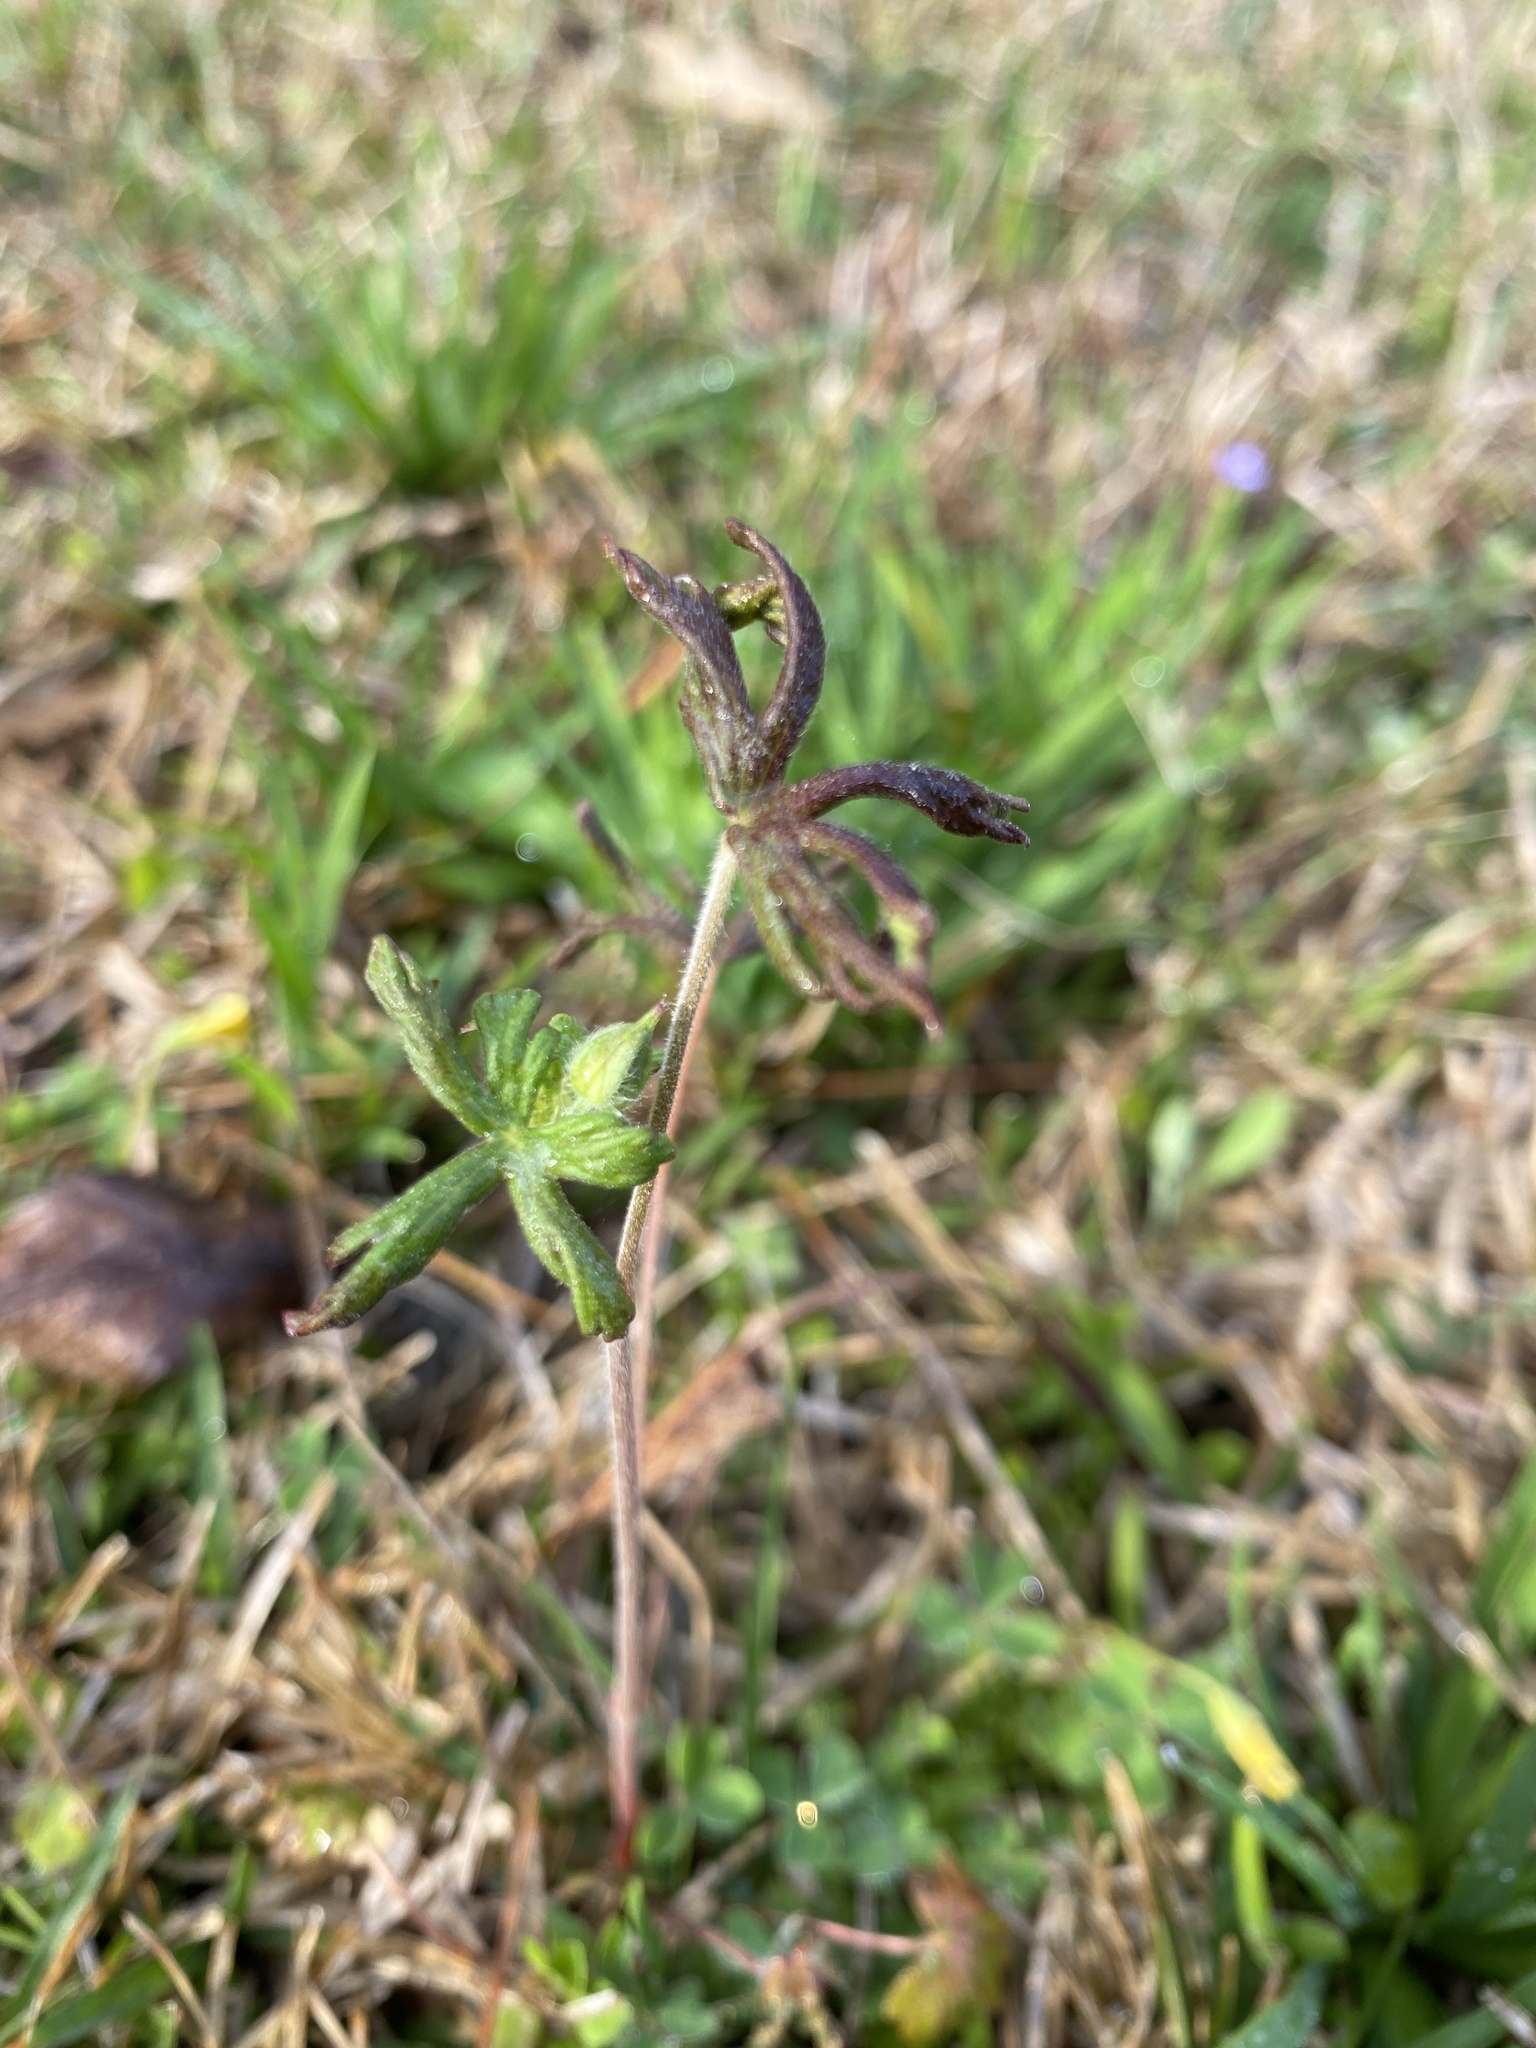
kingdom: Plantae
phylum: Tracheophyta
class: Magnoliopsida
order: Geraniales
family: Geraniaceae
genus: Geranium
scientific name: Geranium carolinianum
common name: Carolina crane's-bill
